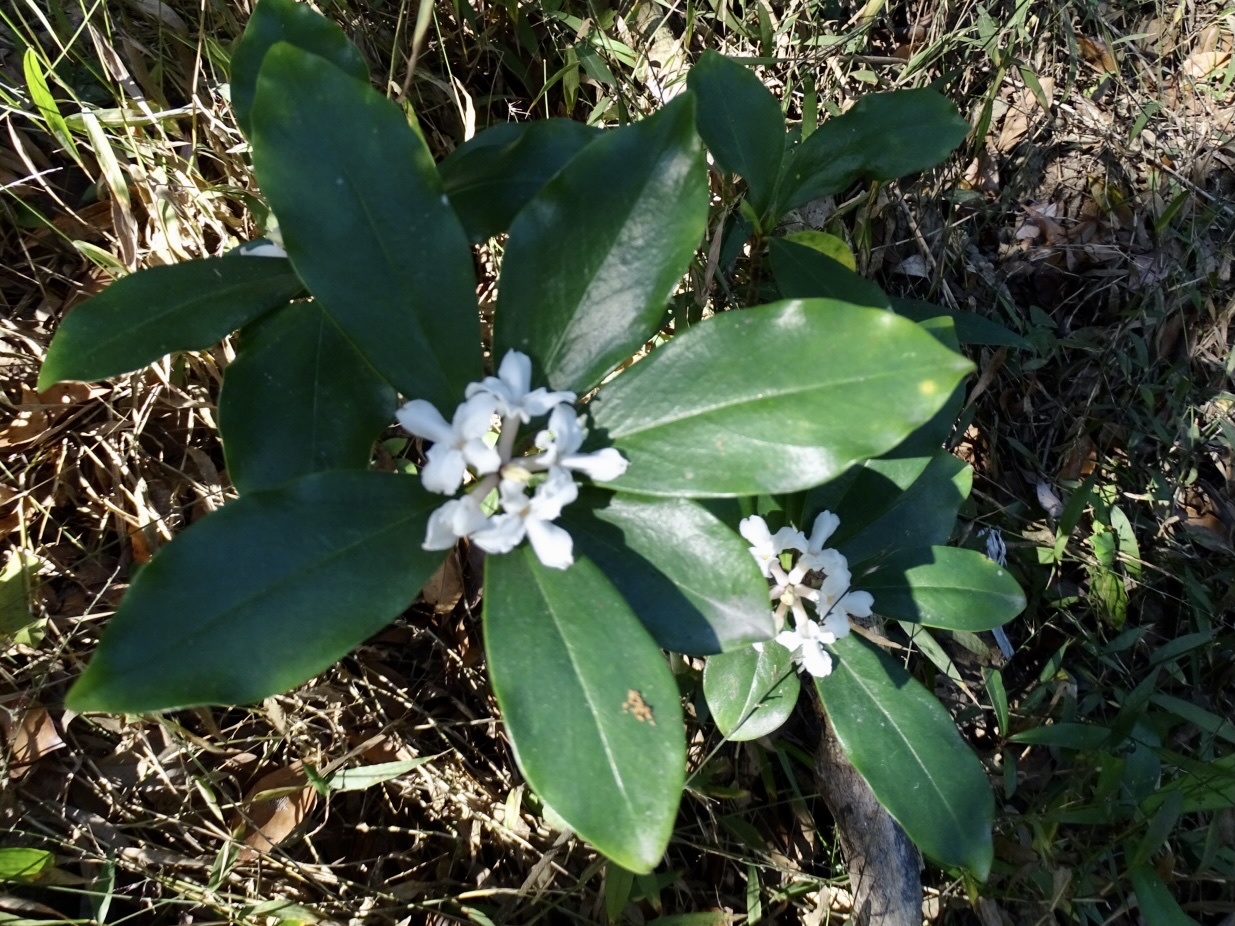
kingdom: Plantae
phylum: Tracheophyta
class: Magnoliopsida
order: Malvales
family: Thymelaeaceae
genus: Daphne
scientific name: Daphne papyracea
